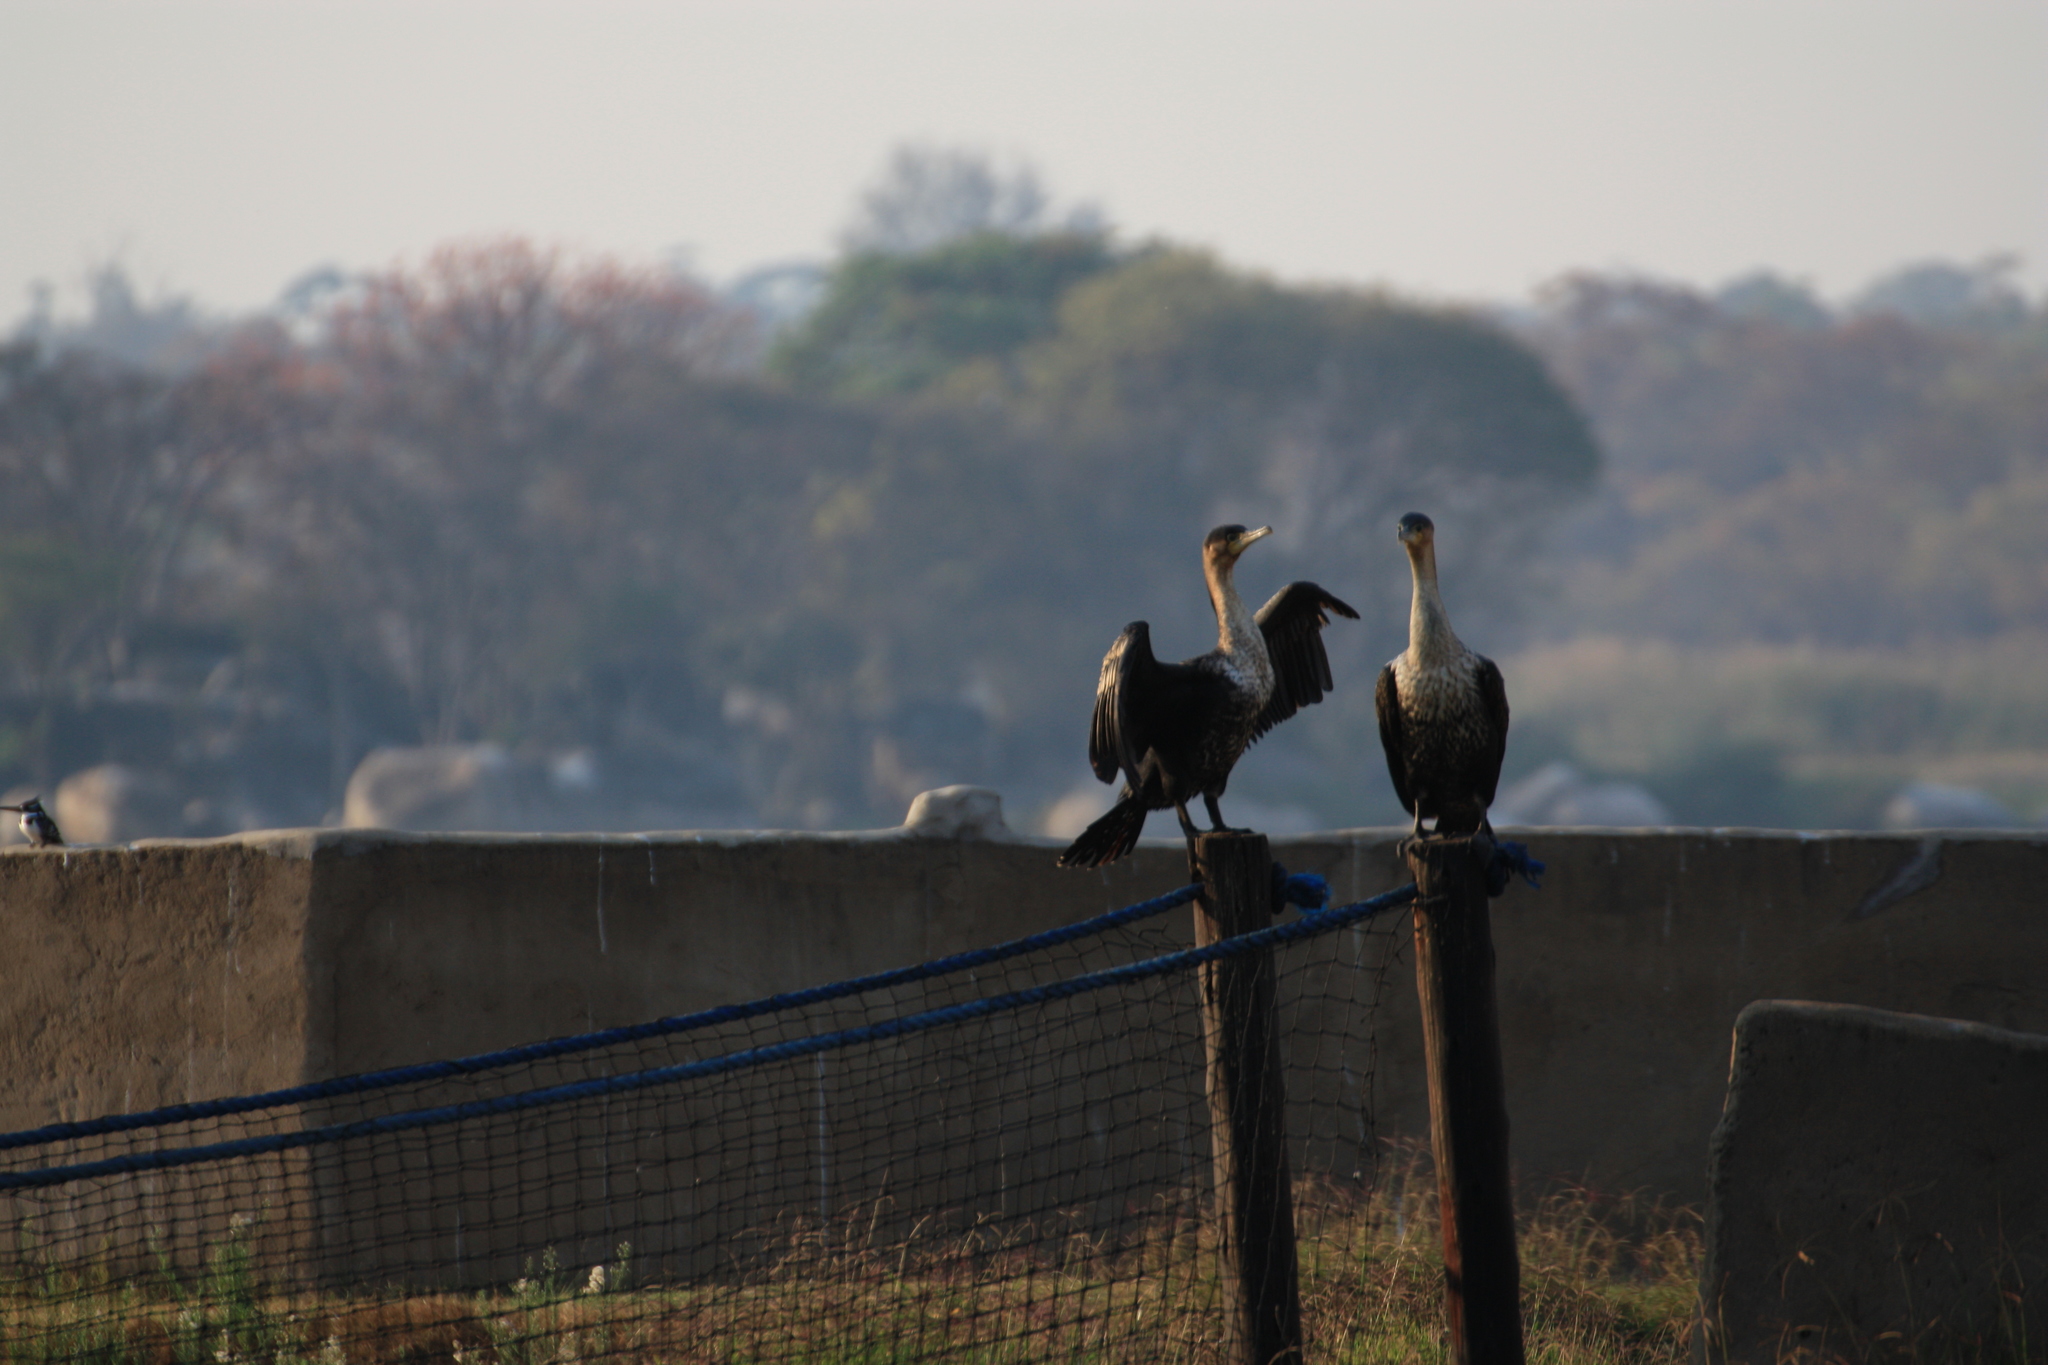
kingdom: Animalia
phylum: Chordata
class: Aves
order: Suliformes
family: Phalacrocoracidae
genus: Phalacrocorax
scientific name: Phalacrocorax carbo
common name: Great cormorant
